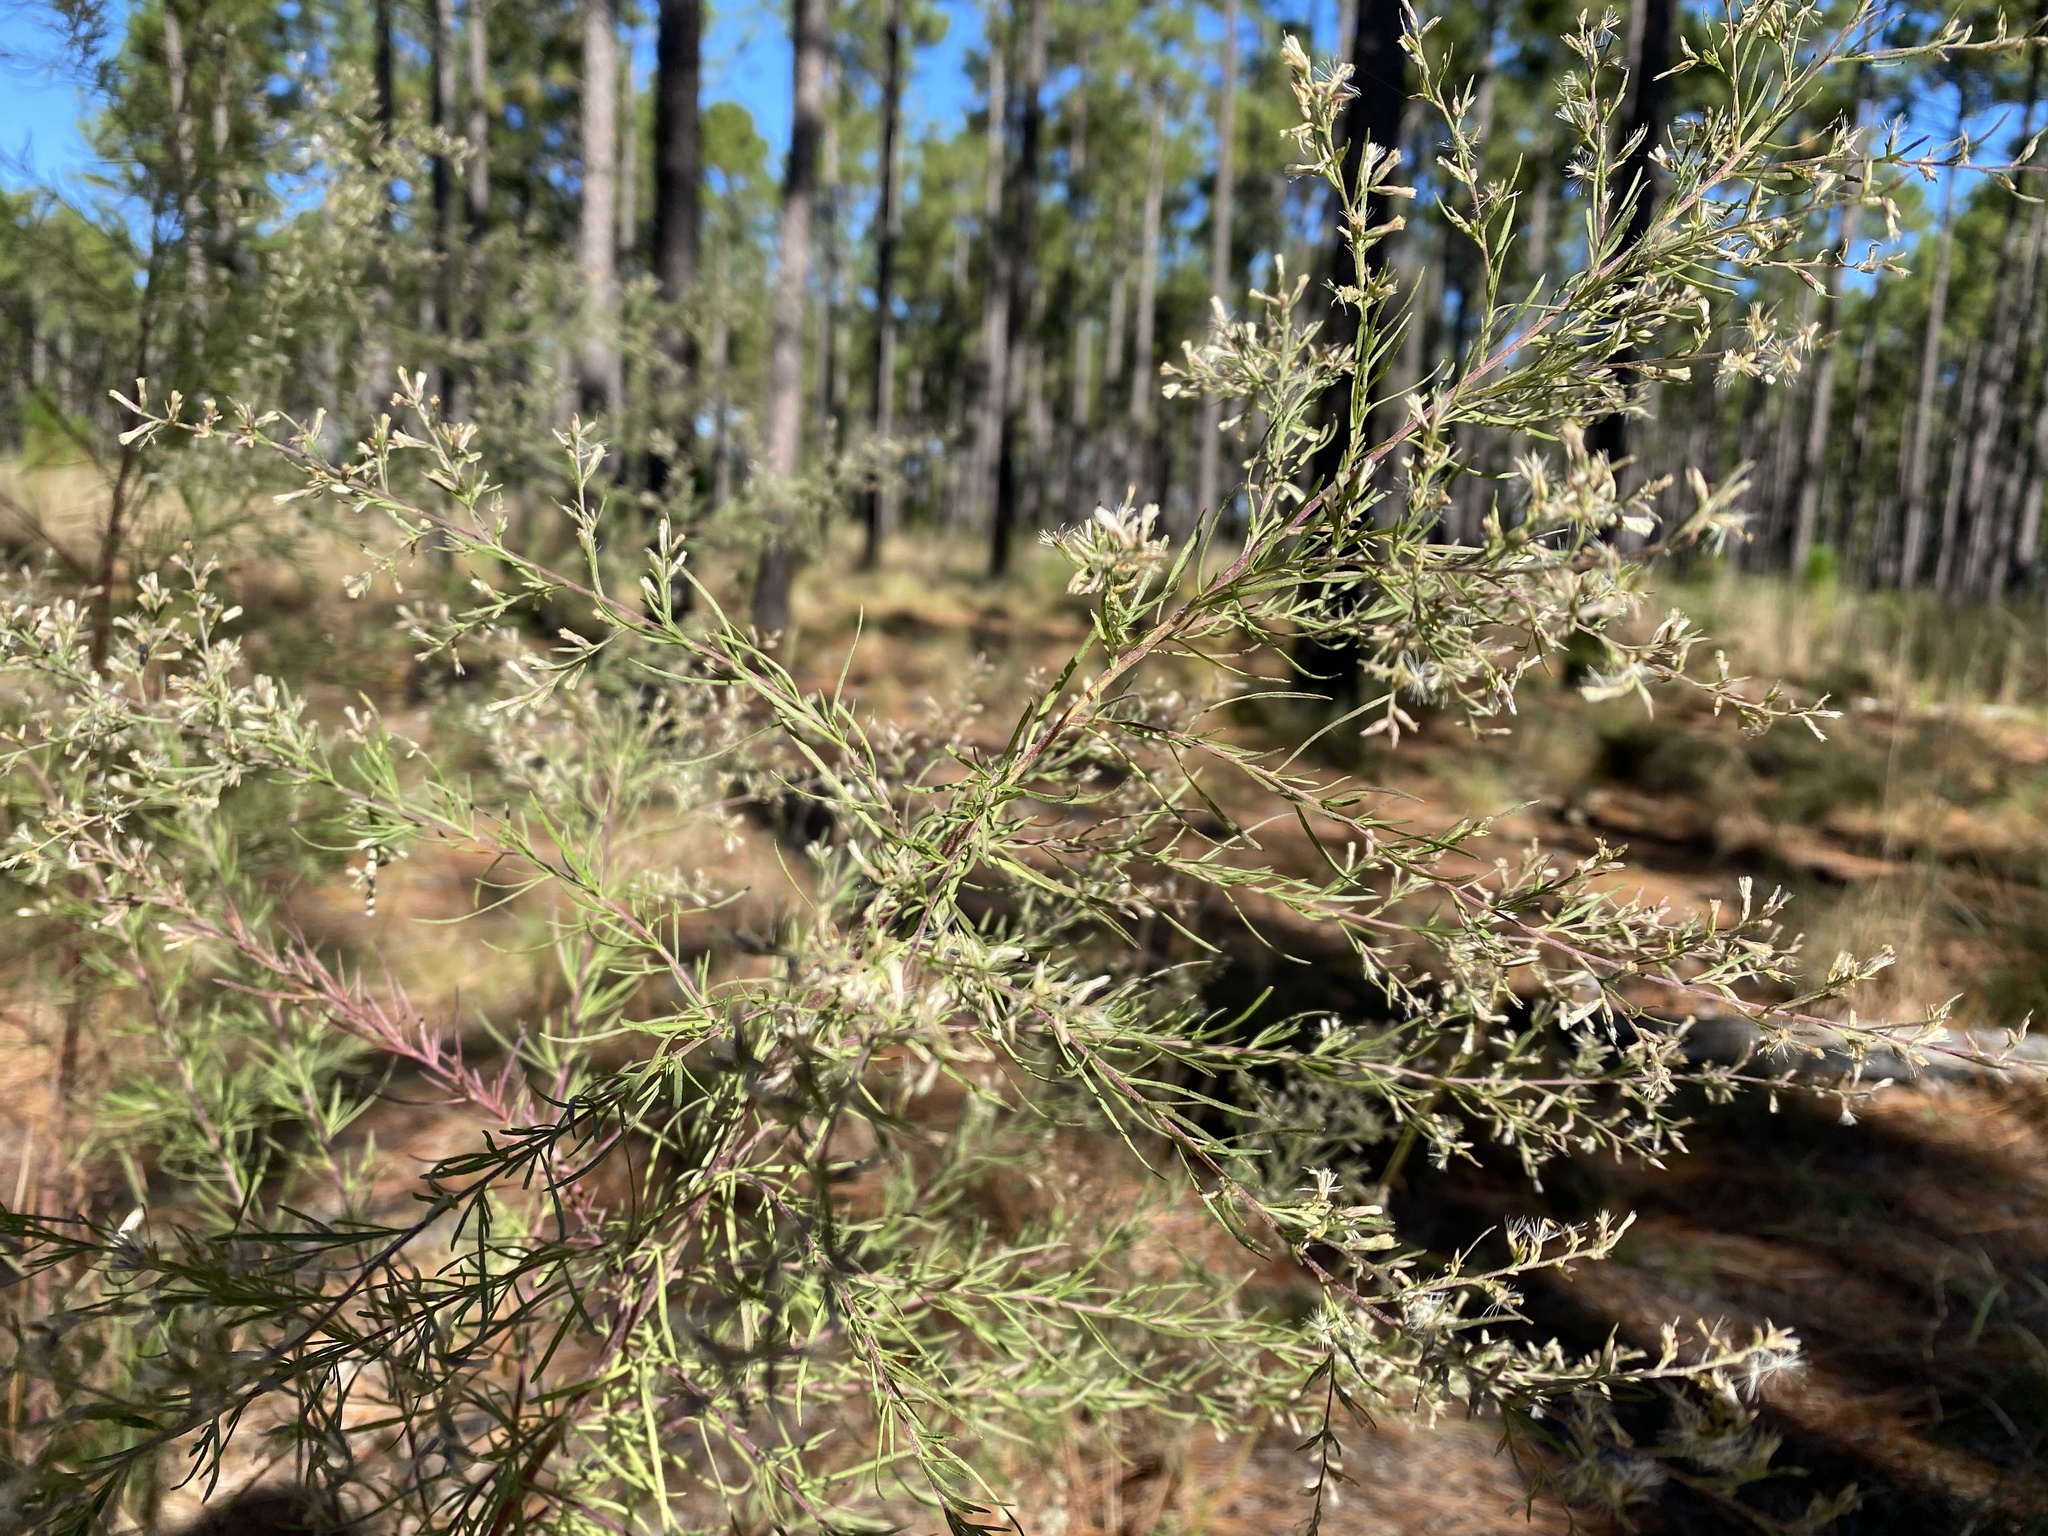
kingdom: Plantae
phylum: Tracheophyta
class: Magnoliopsida
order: Asterales
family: Asteraceae
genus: Eupatorium
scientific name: Eupatorium compositifolium
